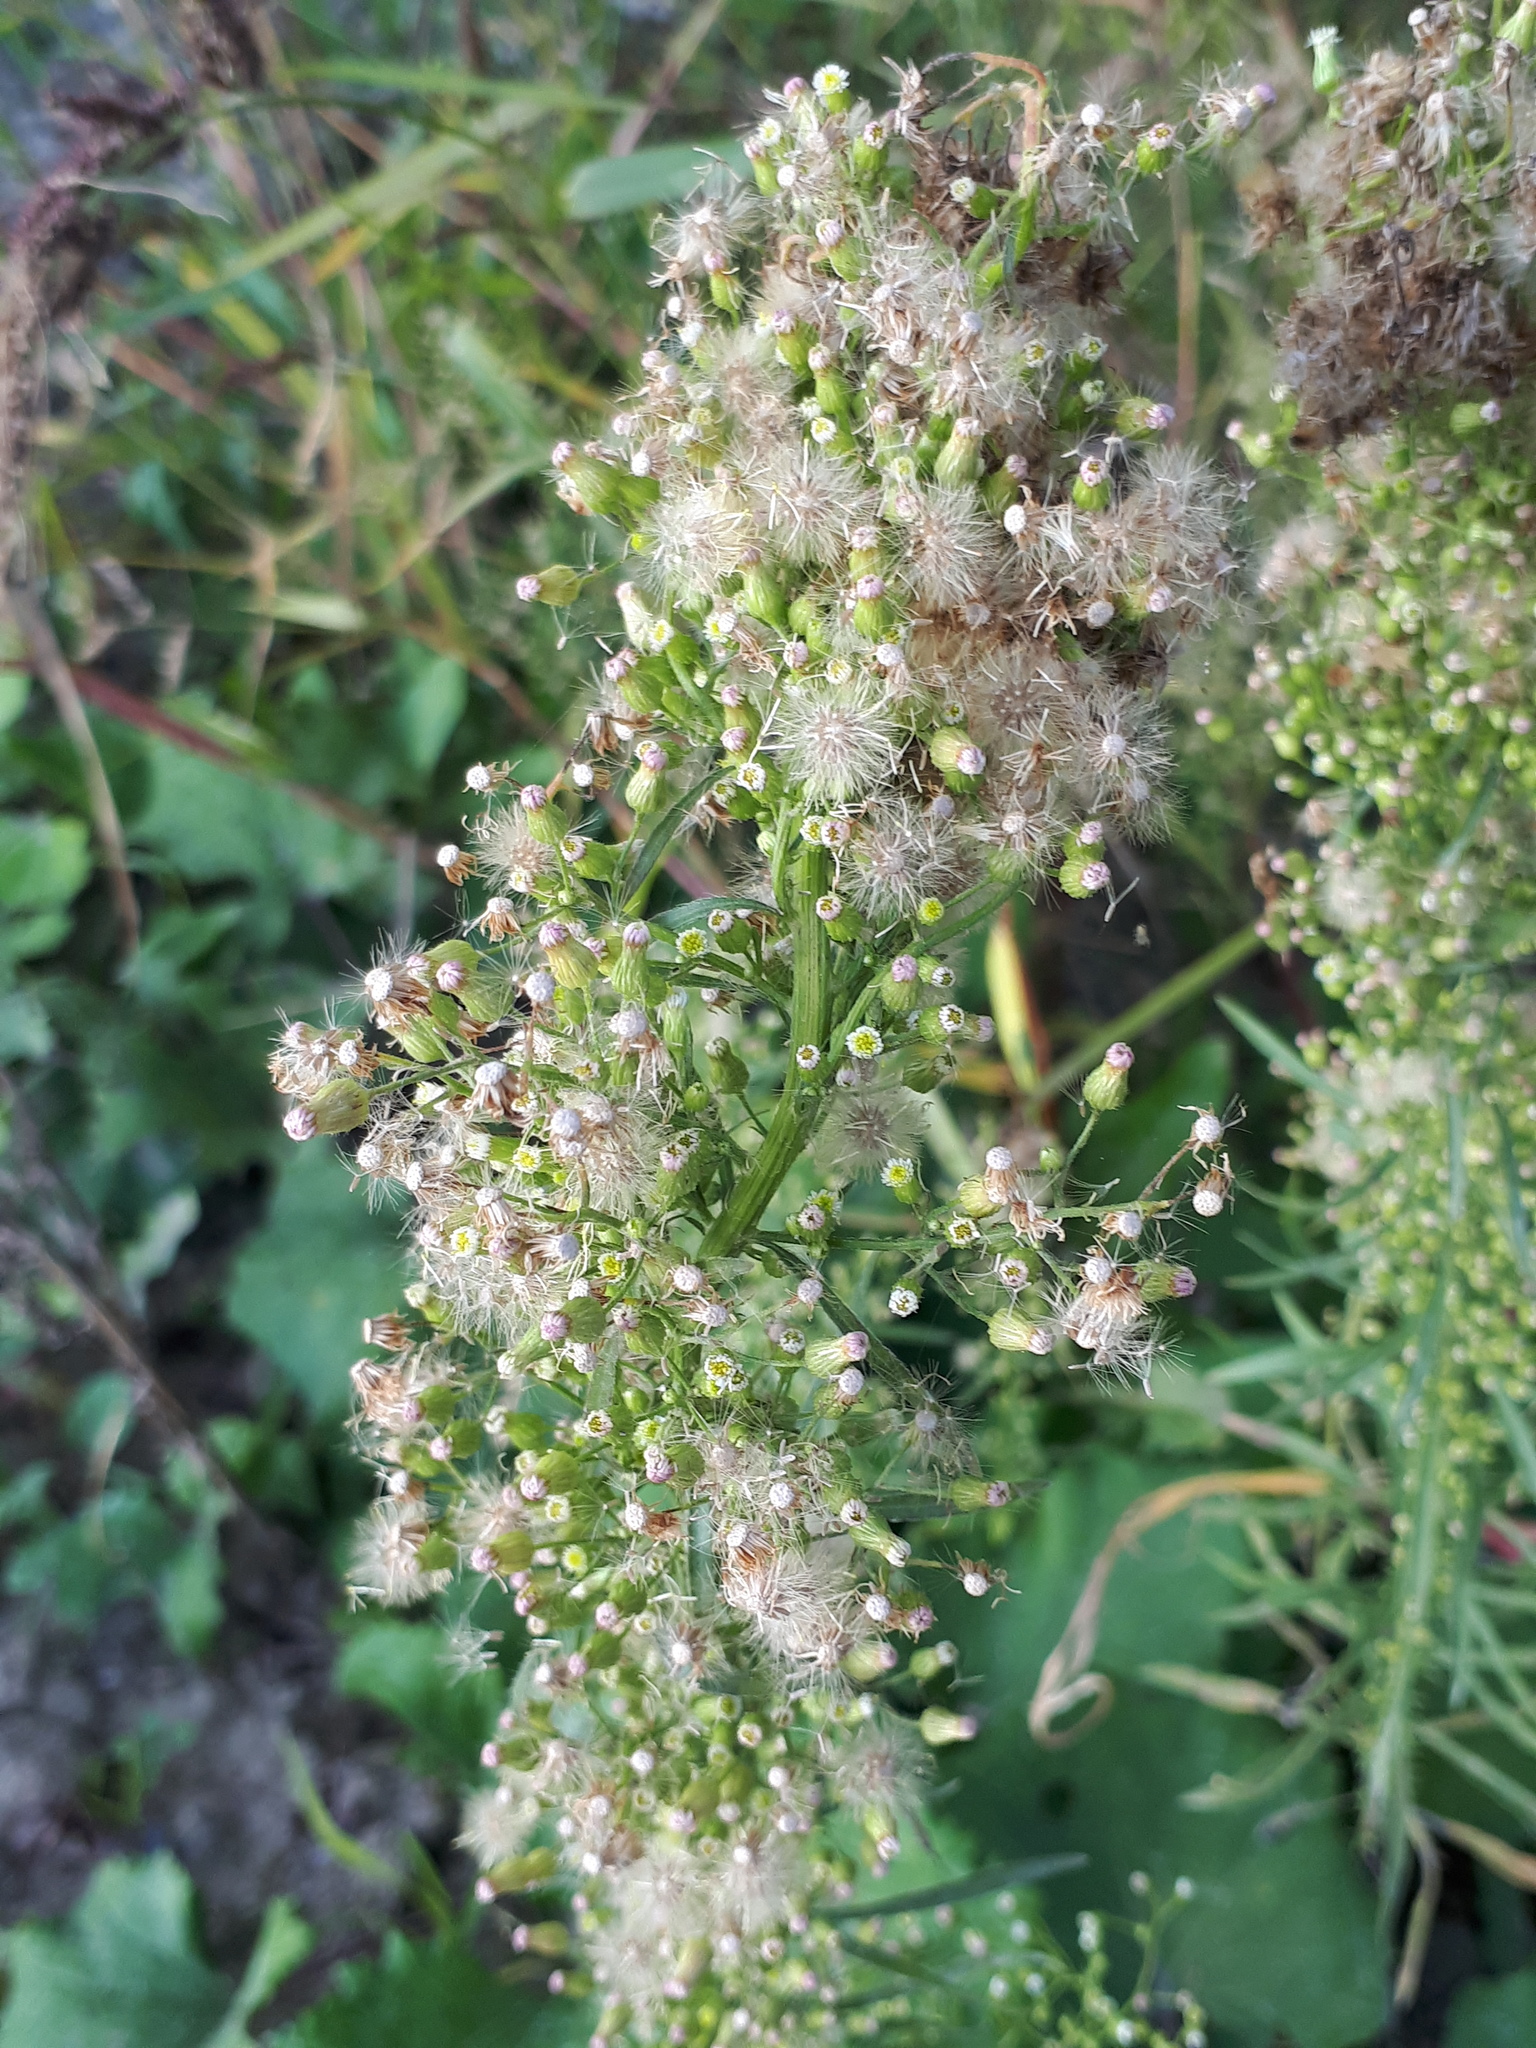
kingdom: Plantae
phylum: Tracheophyta
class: Magnoliopsida
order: Asterales
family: Asteraceae
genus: Erigeron
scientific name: Erigeron canadensis
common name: Canadian fleabane
